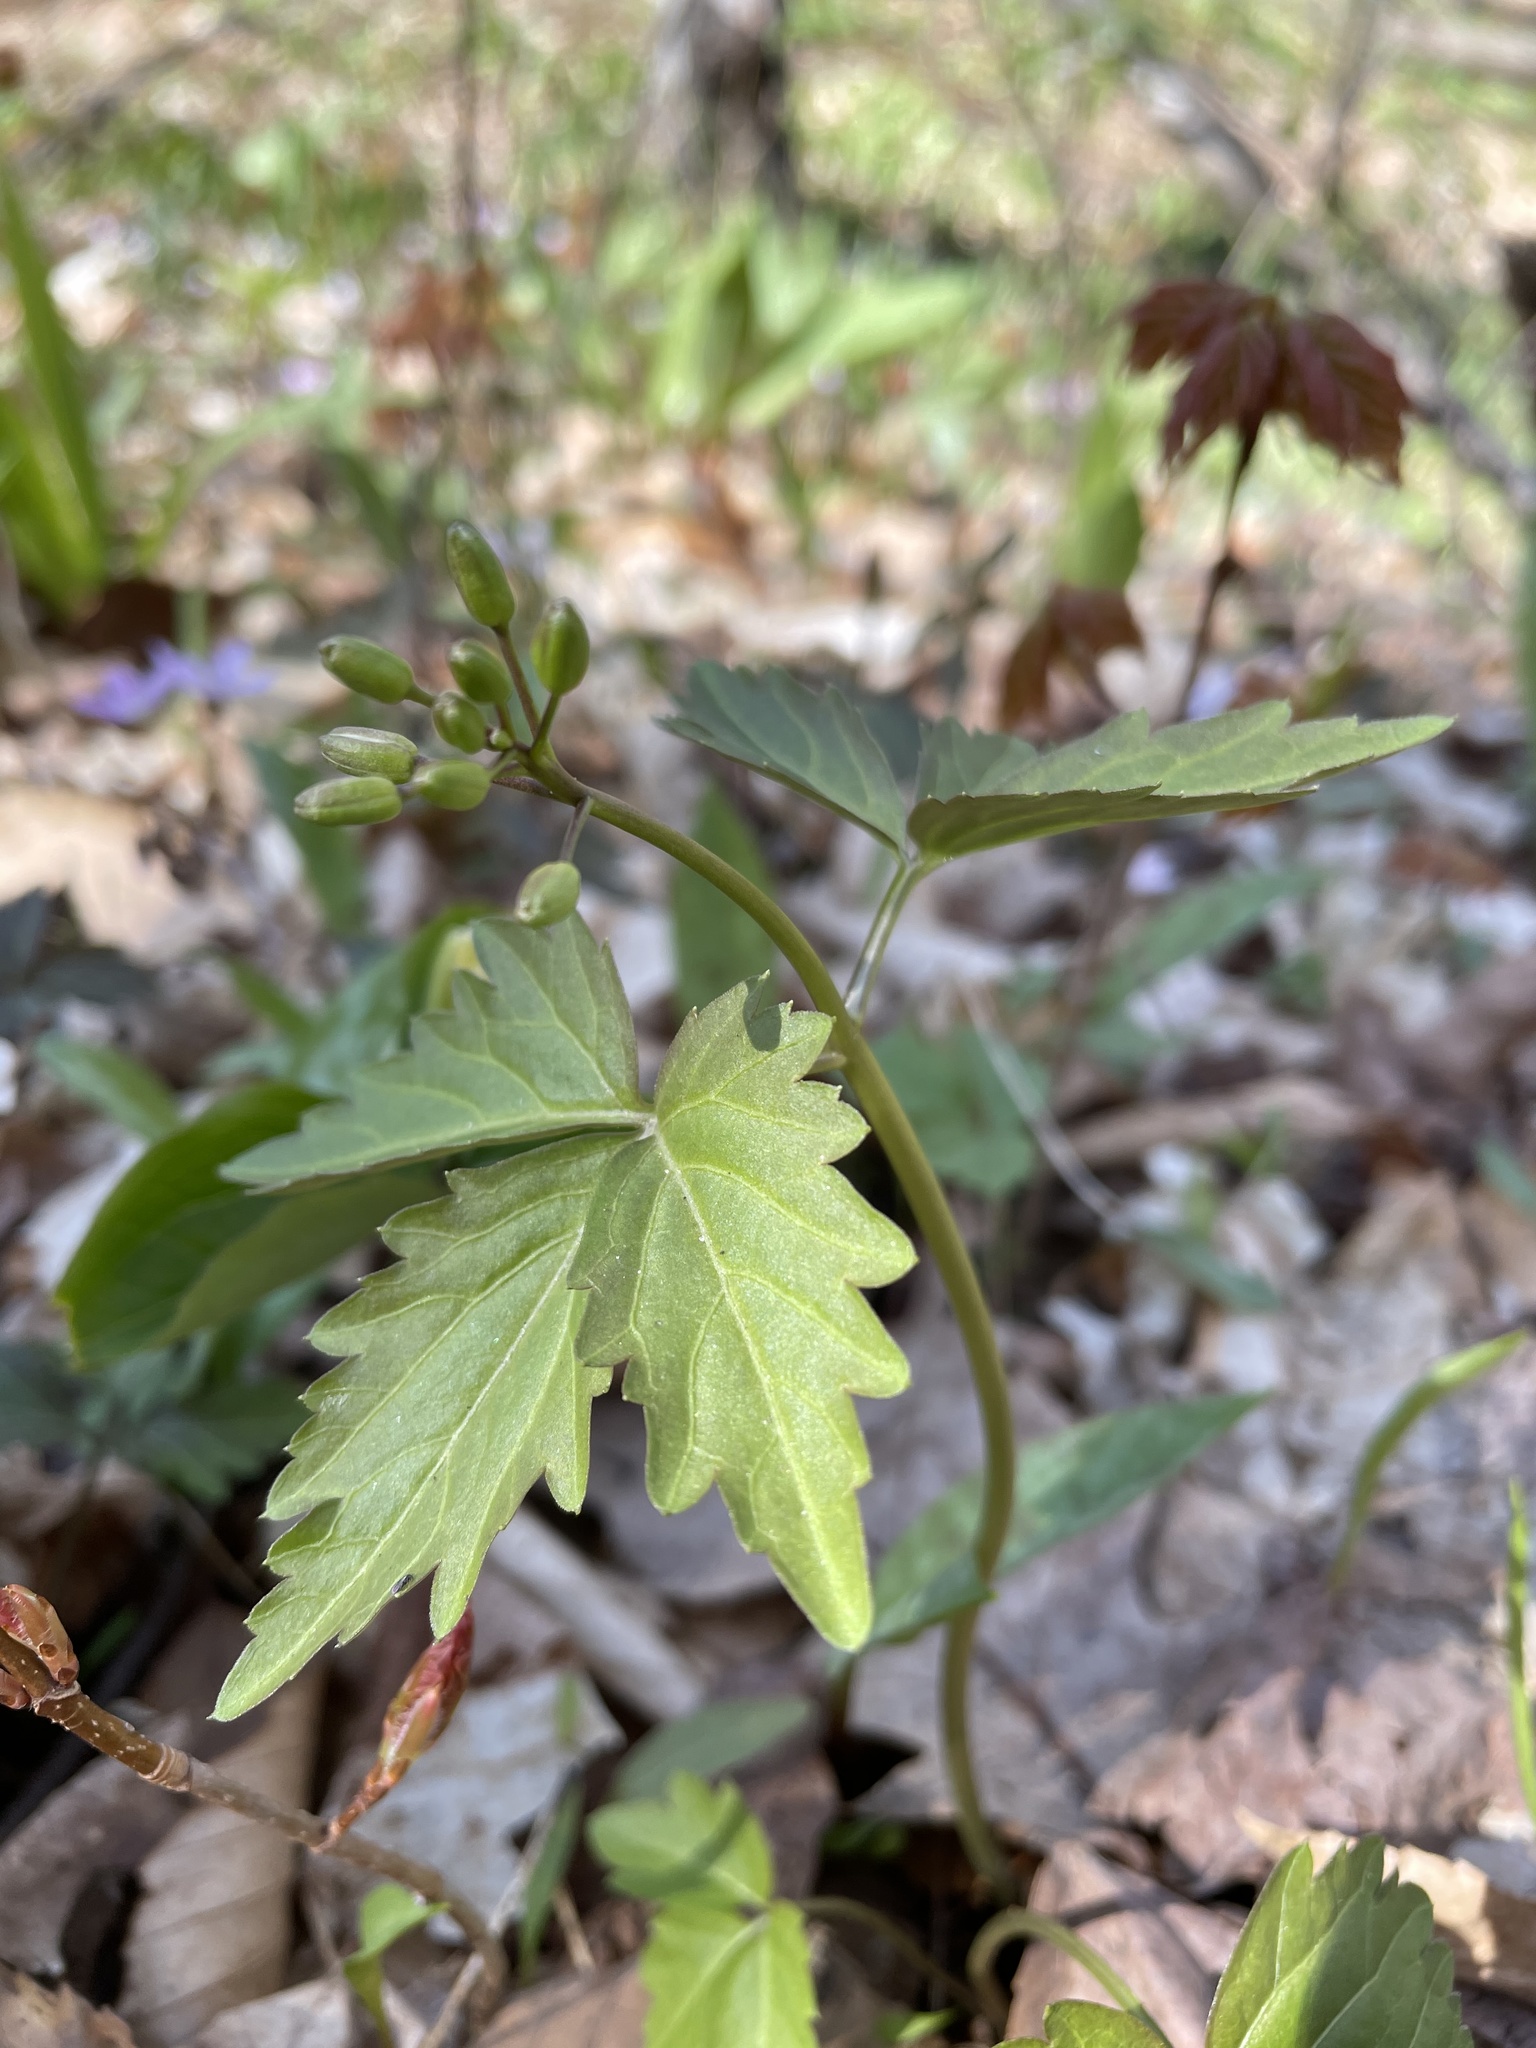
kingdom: Plantae
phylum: Tracheophyta
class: Magnoliopsida
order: Brassicales
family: Brassicaceae
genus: Cardamine
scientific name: Cardamine diphylla
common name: Broad-leaved toothwort
